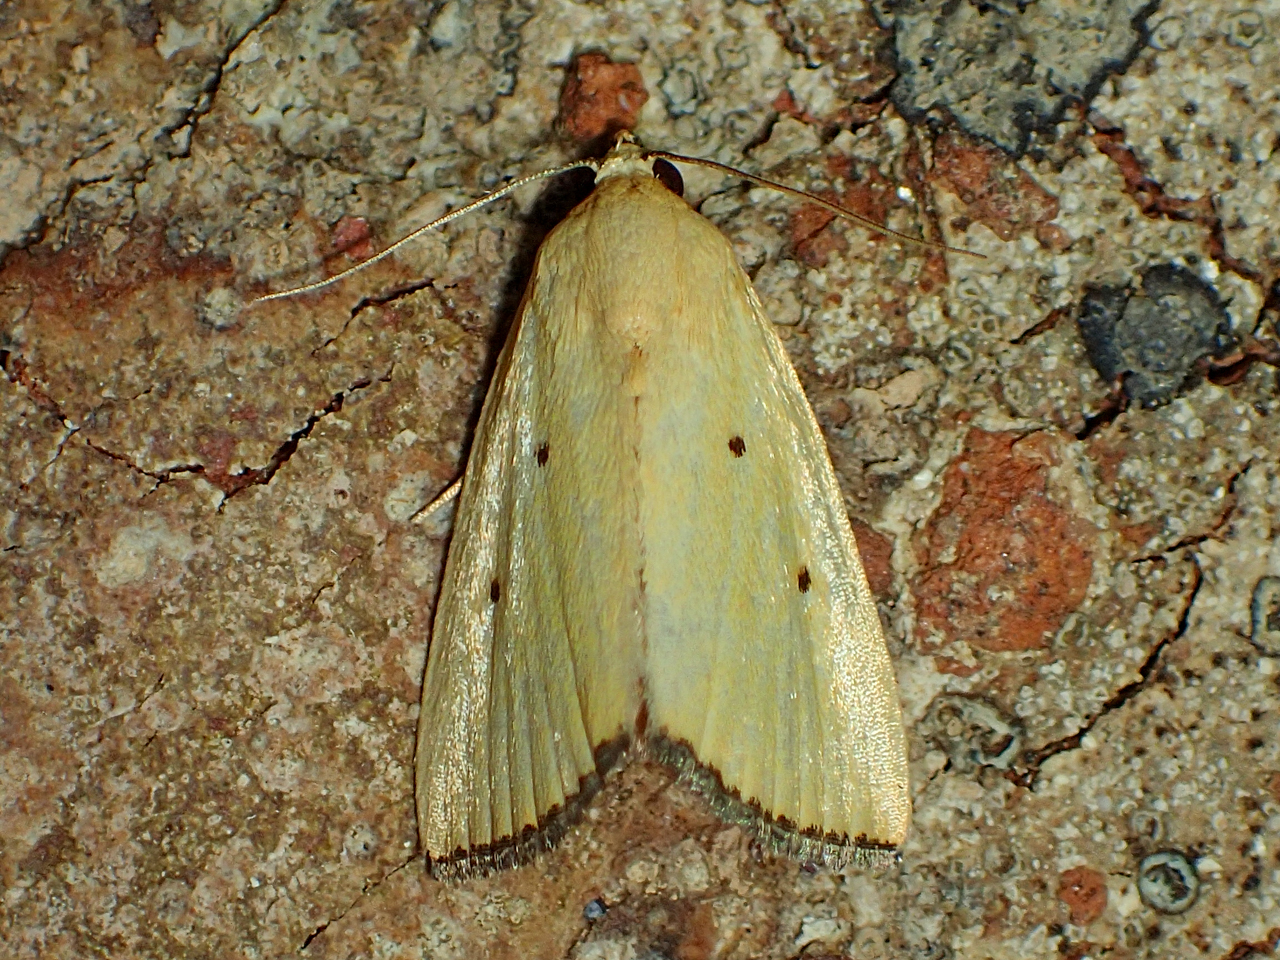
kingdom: Animalia
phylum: Arthropoda
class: Insecta
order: Lepidoptera
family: Noctuidae
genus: Marimatha
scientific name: Marimatha nigrofimbria
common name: Black-bordered lemon moth
